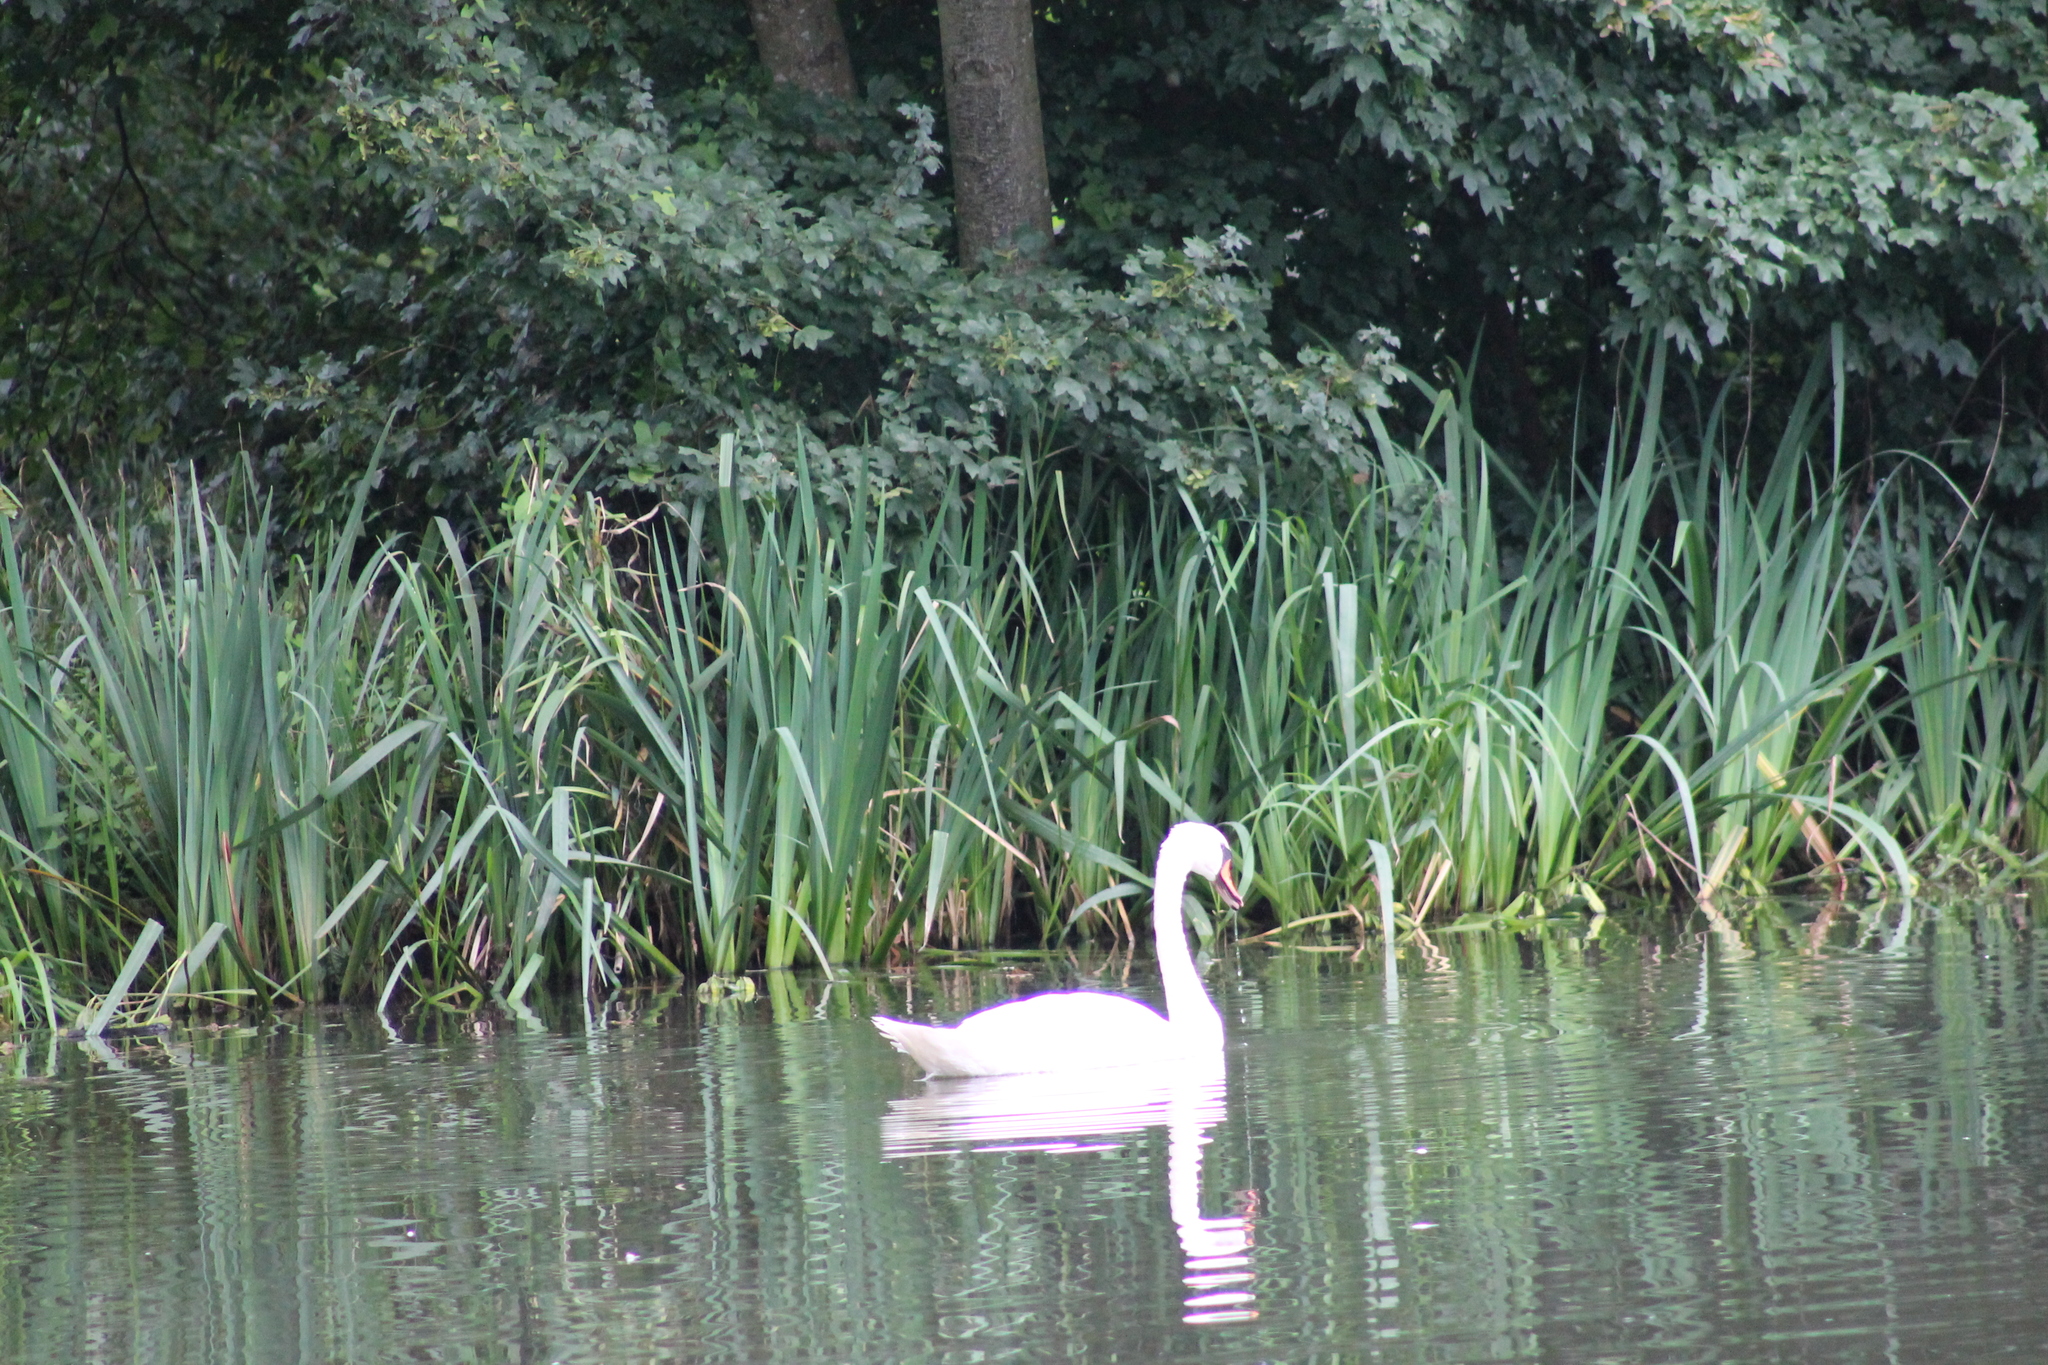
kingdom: Animalia
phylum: Chordata
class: Aves
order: Anseriformes
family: Anatidae
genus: Cygnus
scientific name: Cygnus olor
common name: Mute swan
